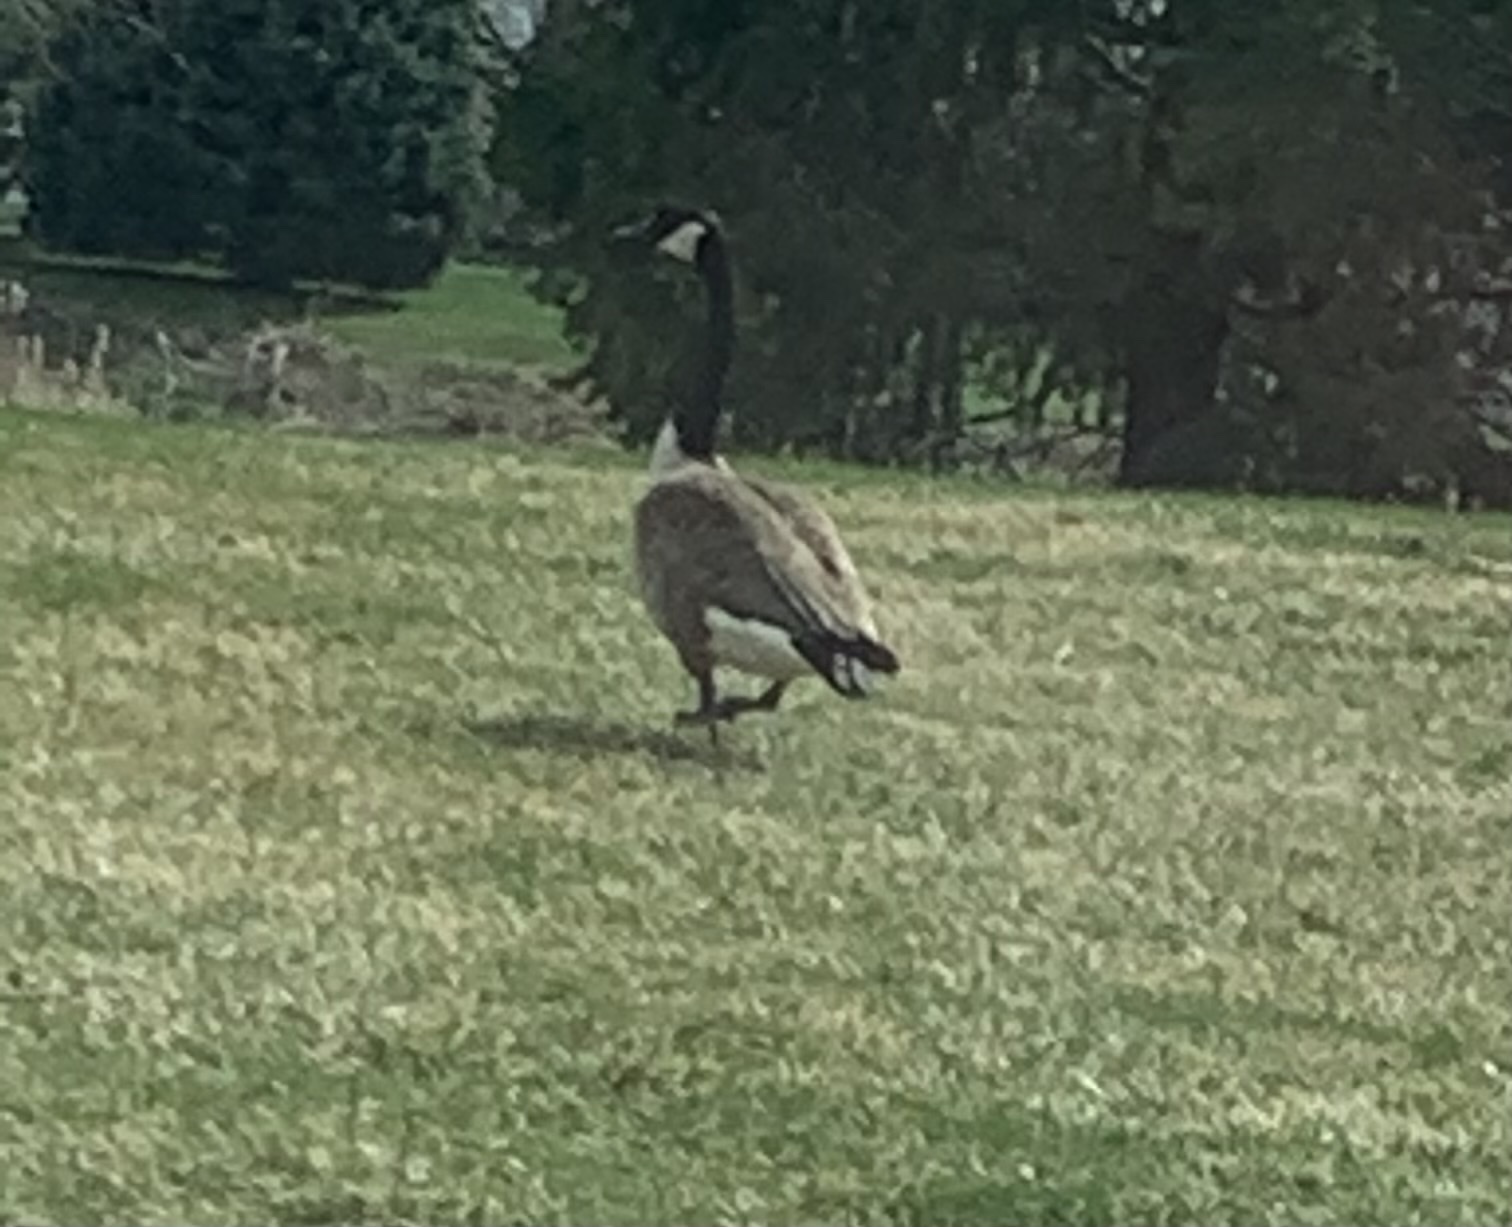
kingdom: Animalia
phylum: Chordata
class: Aves
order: Anseriformes
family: Anatidae
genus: Branta
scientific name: Branta canadensis
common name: Canada goose
